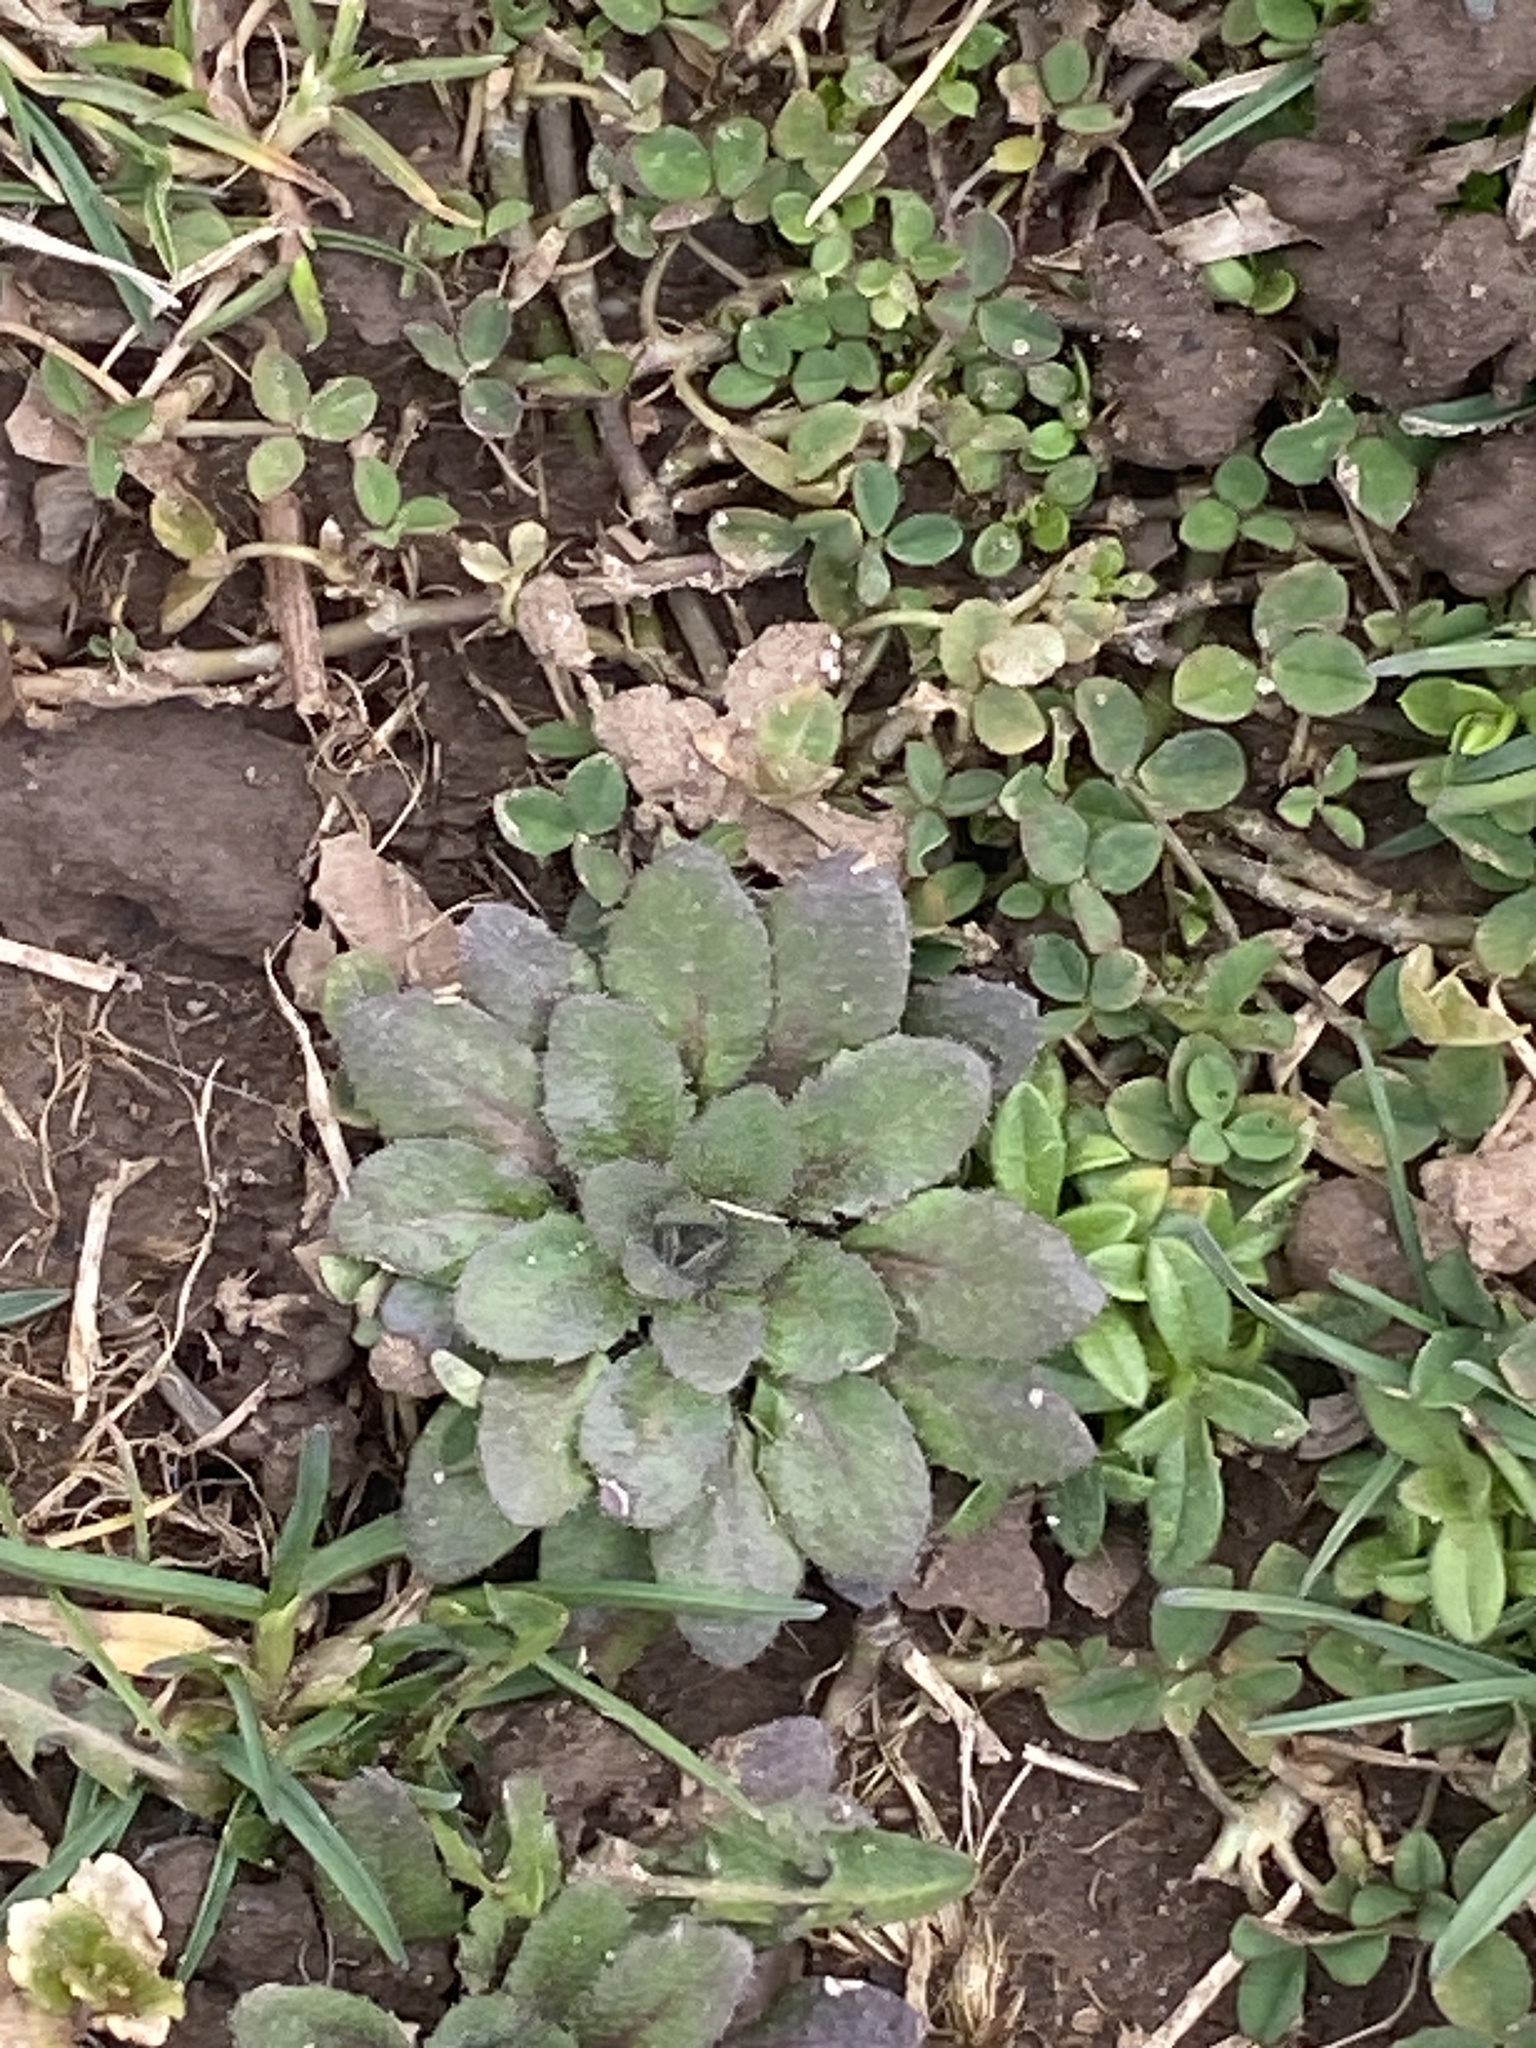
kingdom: Plantae
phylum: Tracheophyta
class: Magnoliopsida
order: Brassicales
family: Brassicaceae
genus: Draba
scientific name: Draba verna
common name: Spring draba
